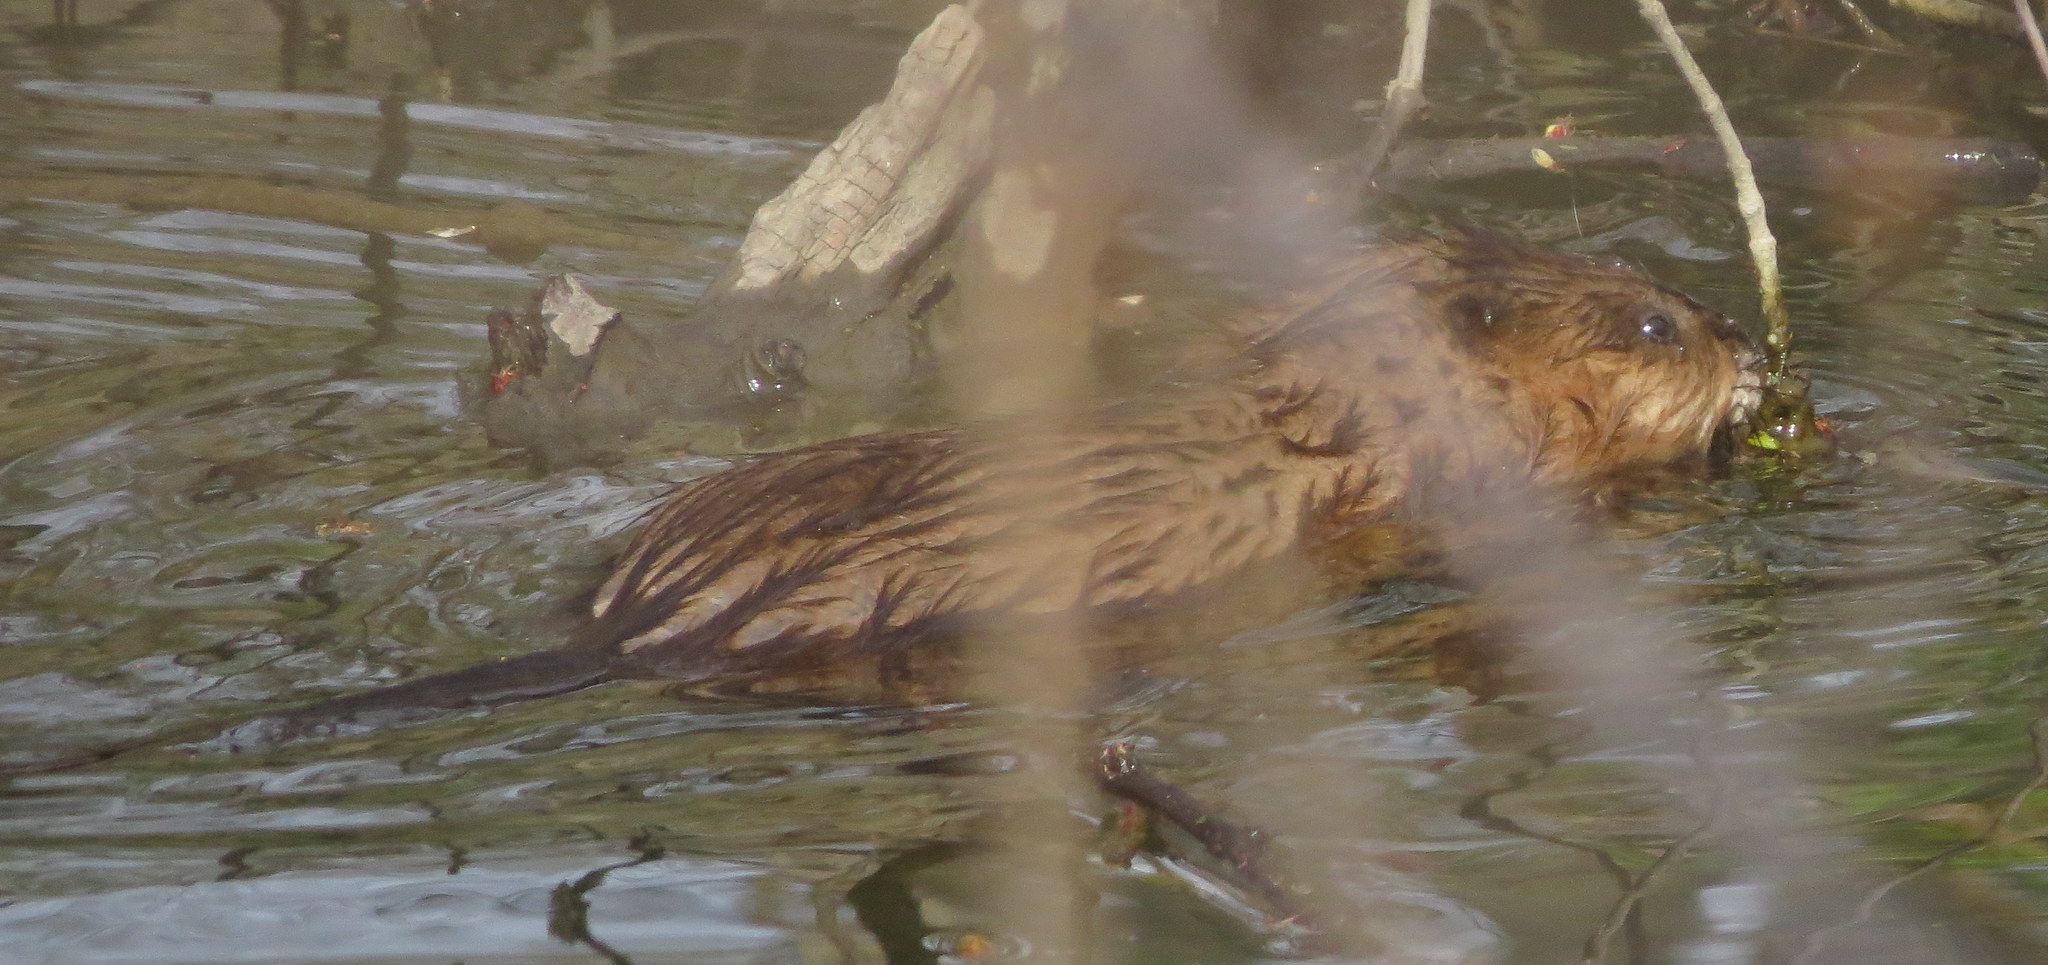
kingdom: Animalia
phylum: Chordata
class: Mammalia
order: Rodentia
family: Cricetidae
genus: Ondatra
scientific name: Ondatra zibethicus
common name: Muskrat
